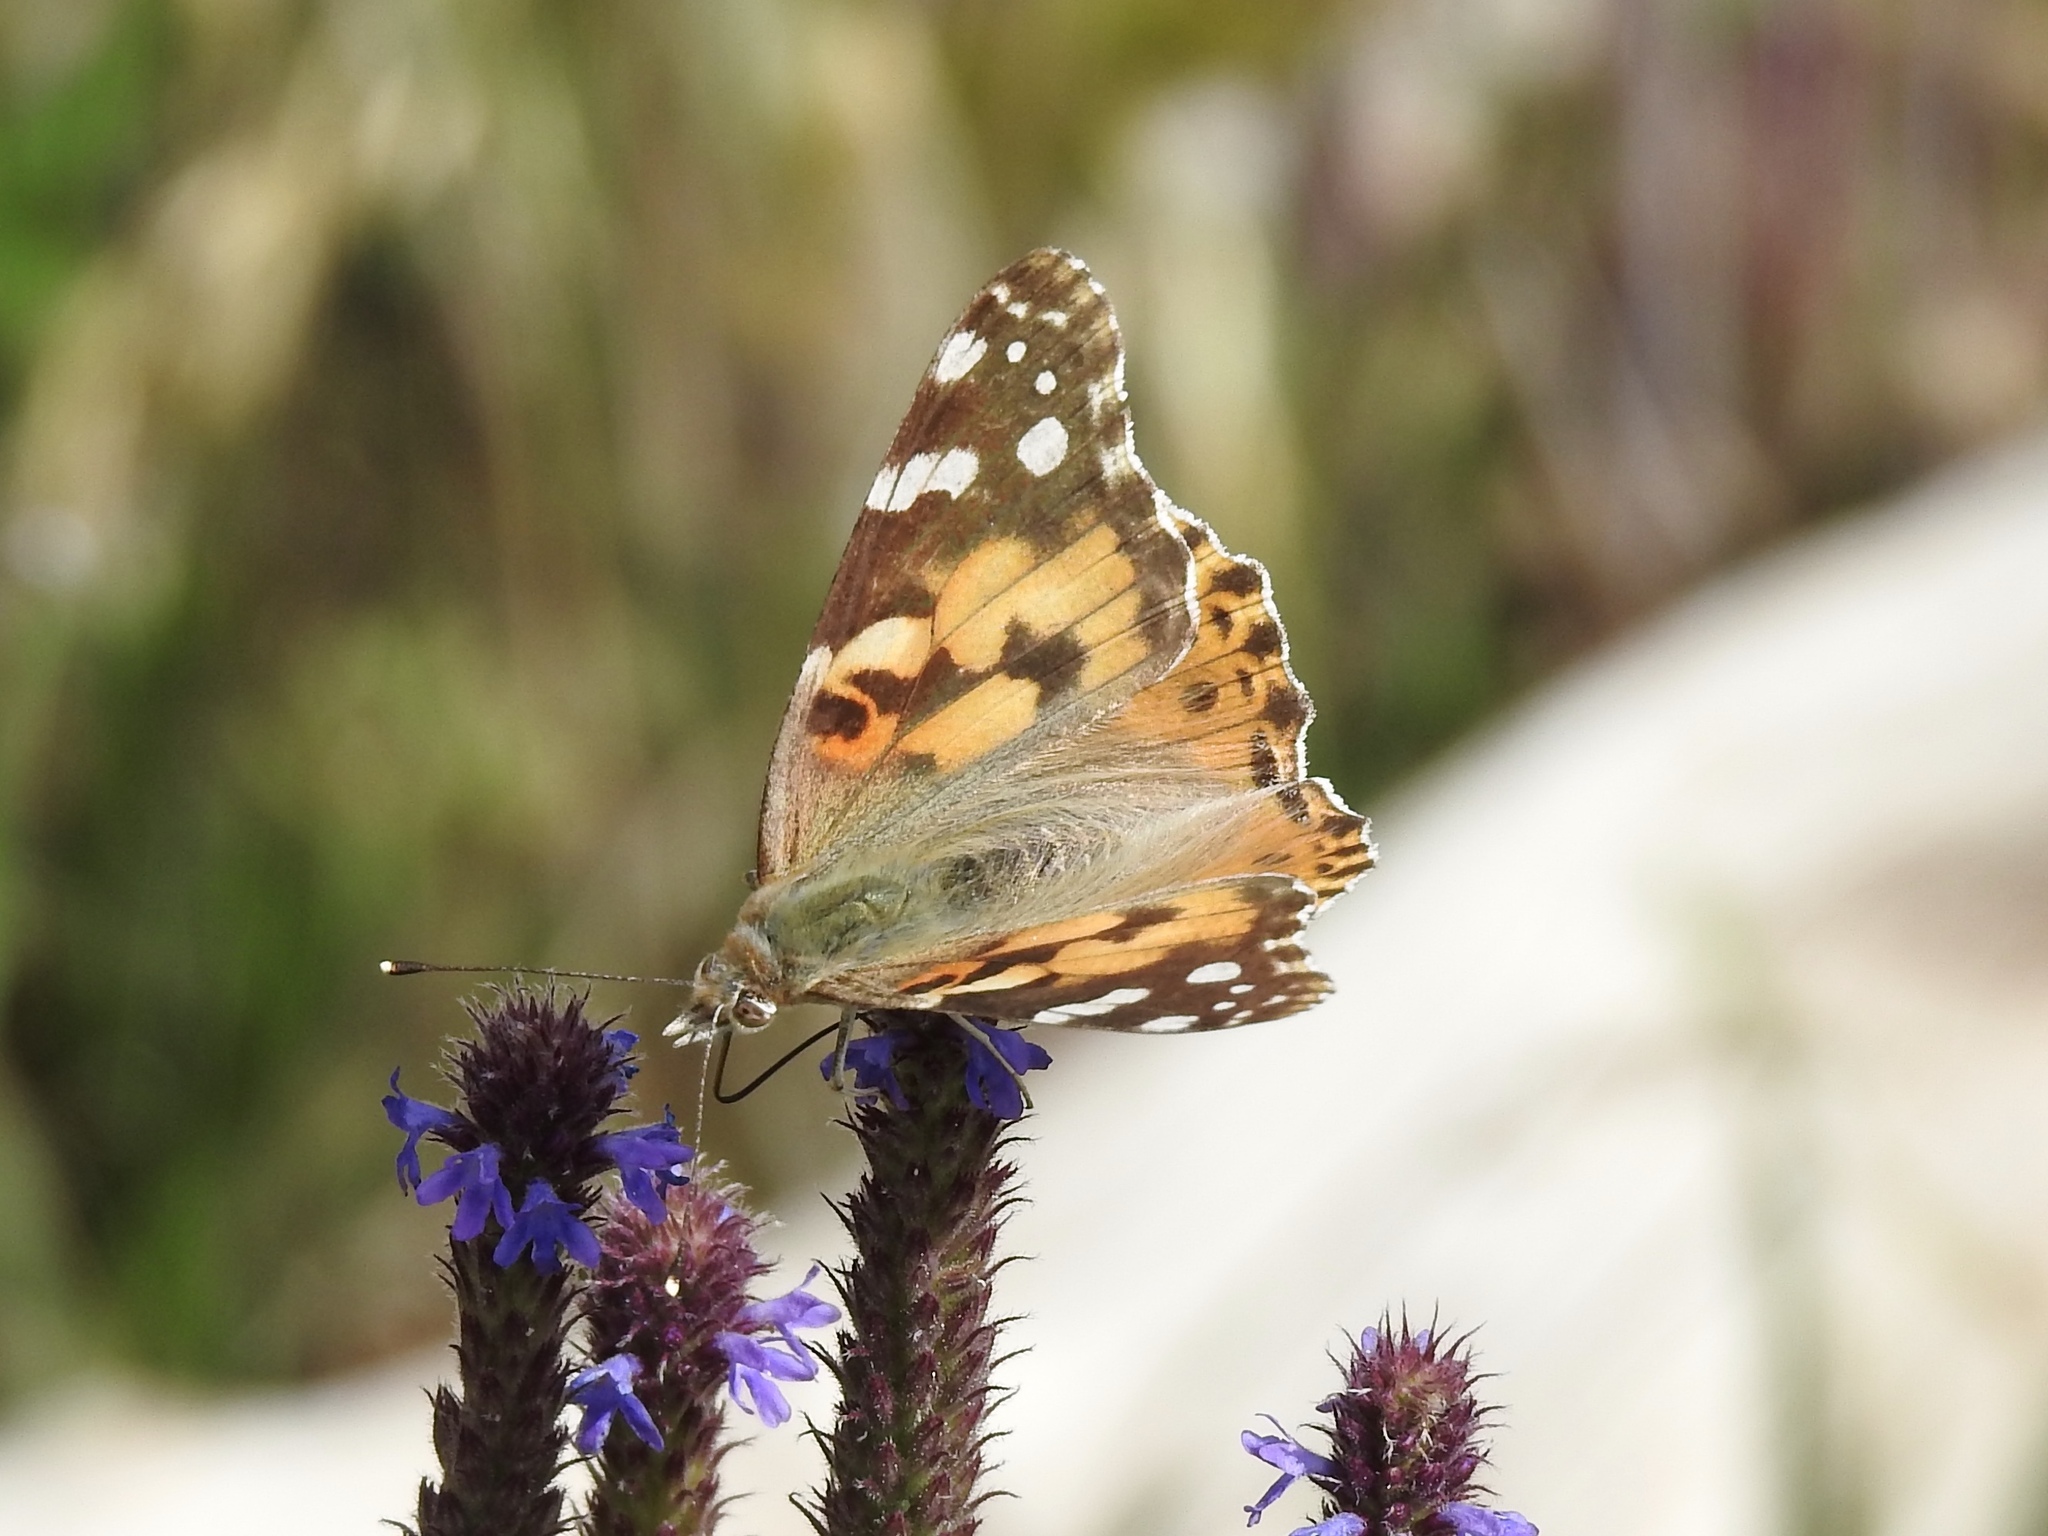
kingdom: Animalia
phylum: Arthropoda
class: Insecta
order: Lepidoptera
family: Nymphalidae
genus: Vanessa
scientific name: Vanessa cardui
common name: Painted lady
